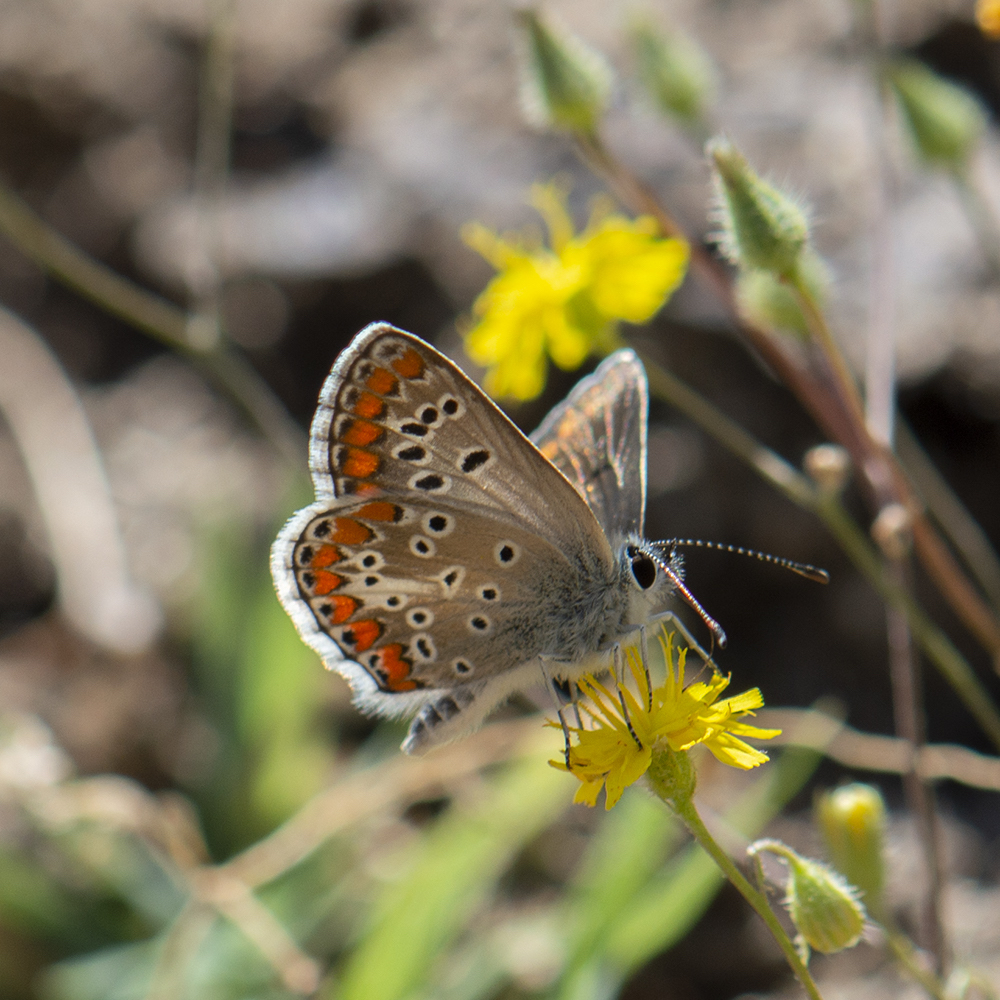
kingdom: Animalia
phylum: Arthropoda
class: Insecta
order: Lepidoptera
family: Lycaenidae
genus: Aricia
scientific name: Aricia agestis
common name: Brown argus
